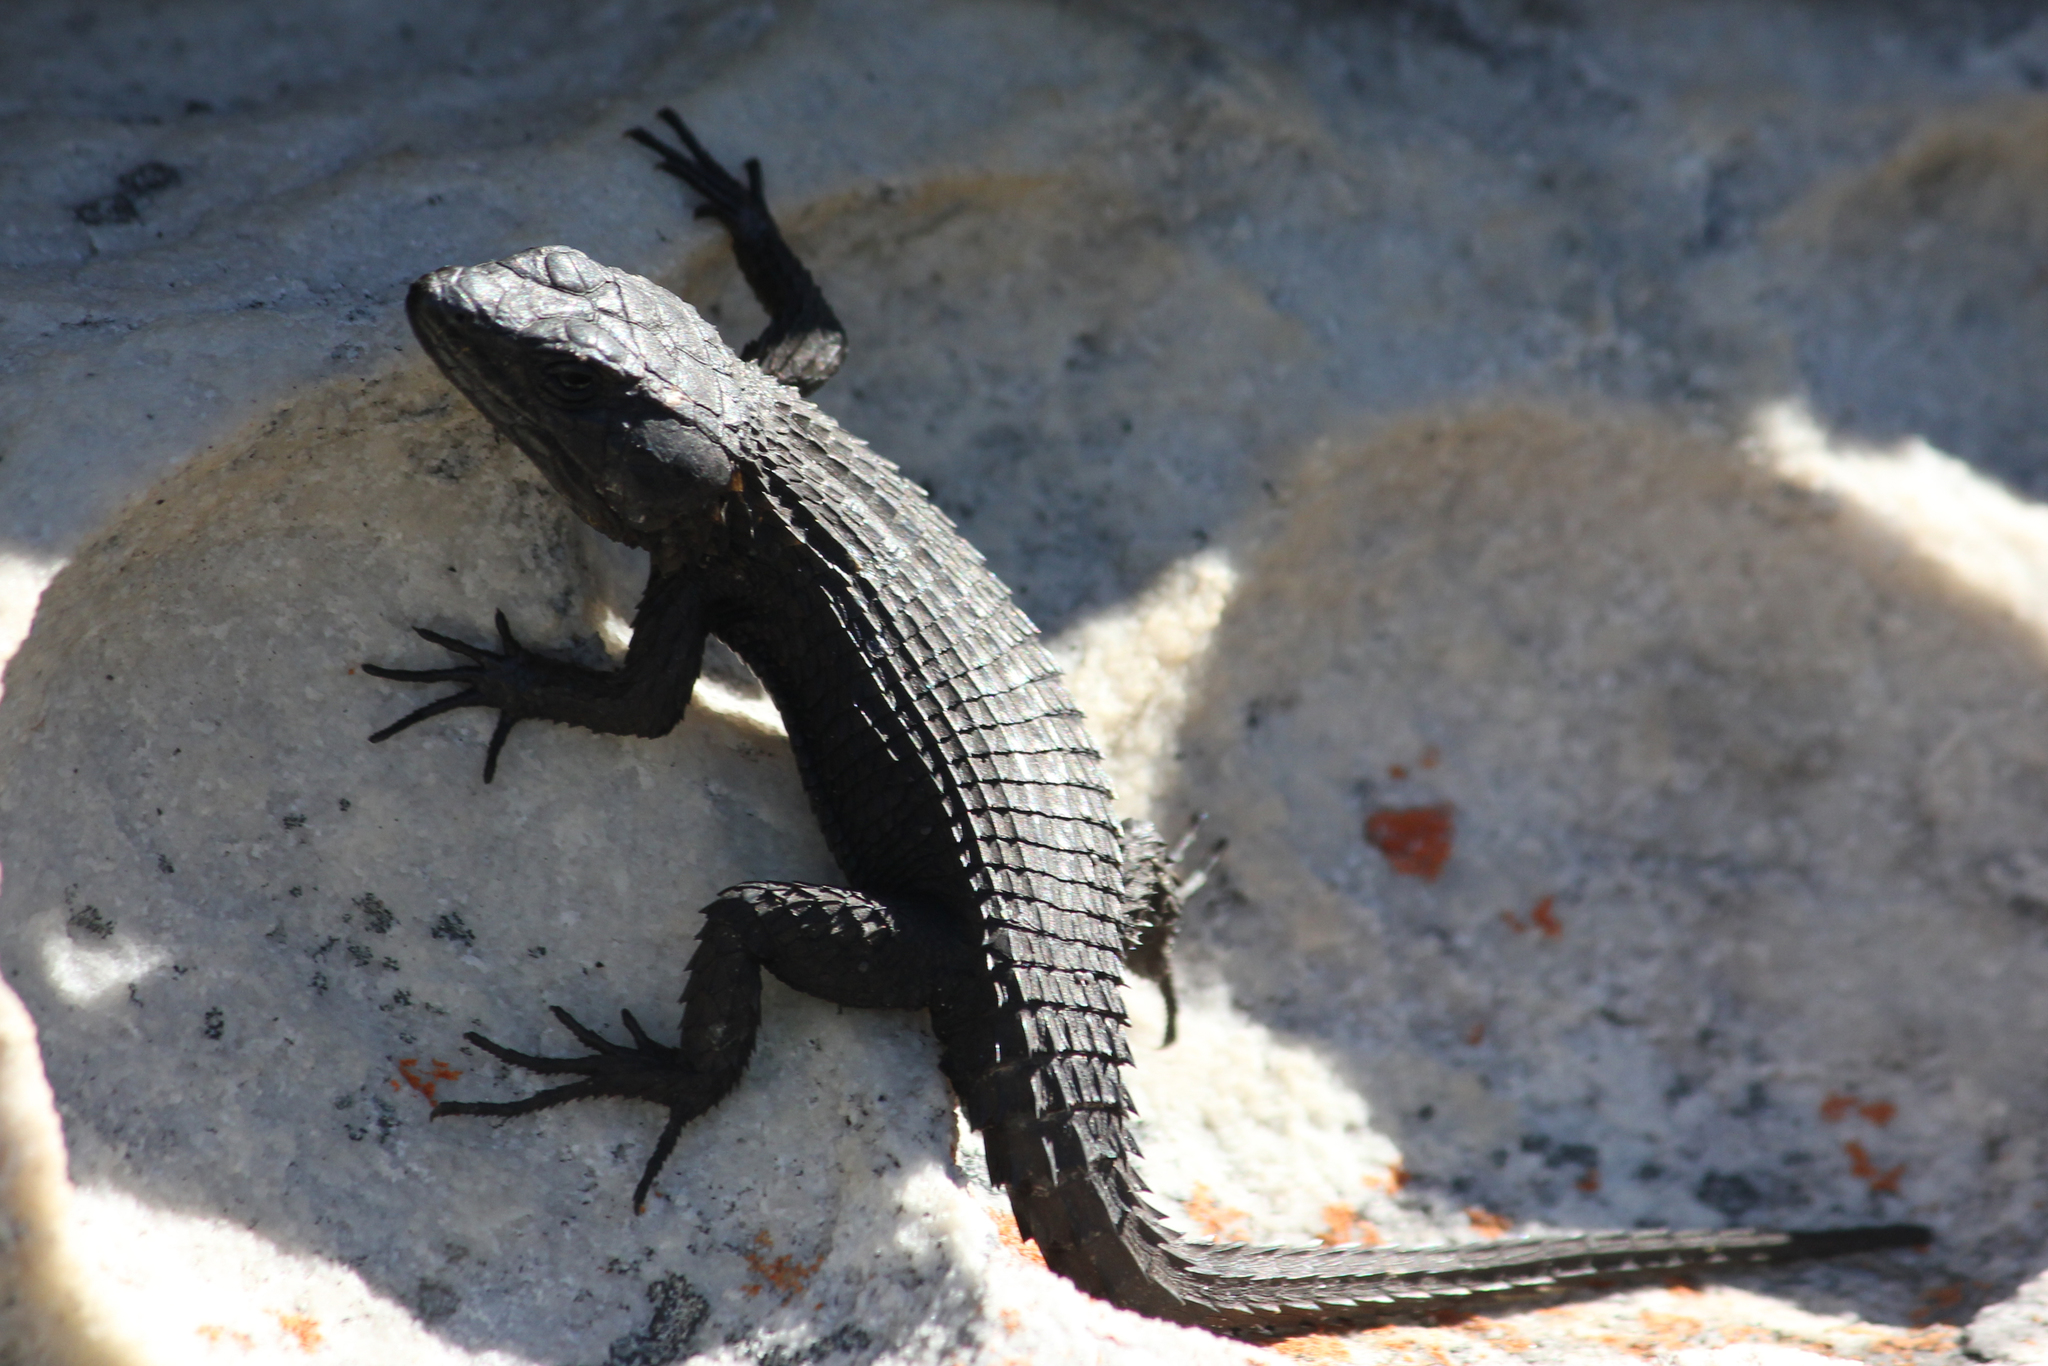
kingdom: Animalia
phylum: Chordata
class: Squamata
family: Cordylidae
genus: Cordylus
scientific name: Cordylus niger
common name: Black girdled lizard
